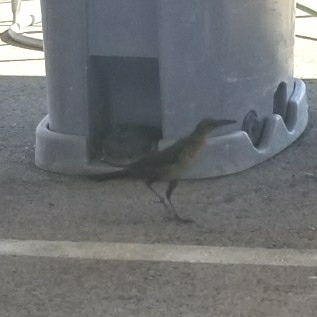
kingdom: Animalia
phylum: Chordata
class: Aves
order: Passeriformes
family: Icteridae
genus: Quiscalus
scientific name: Quiscalus mexicanus
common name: Great-tailed grackle
